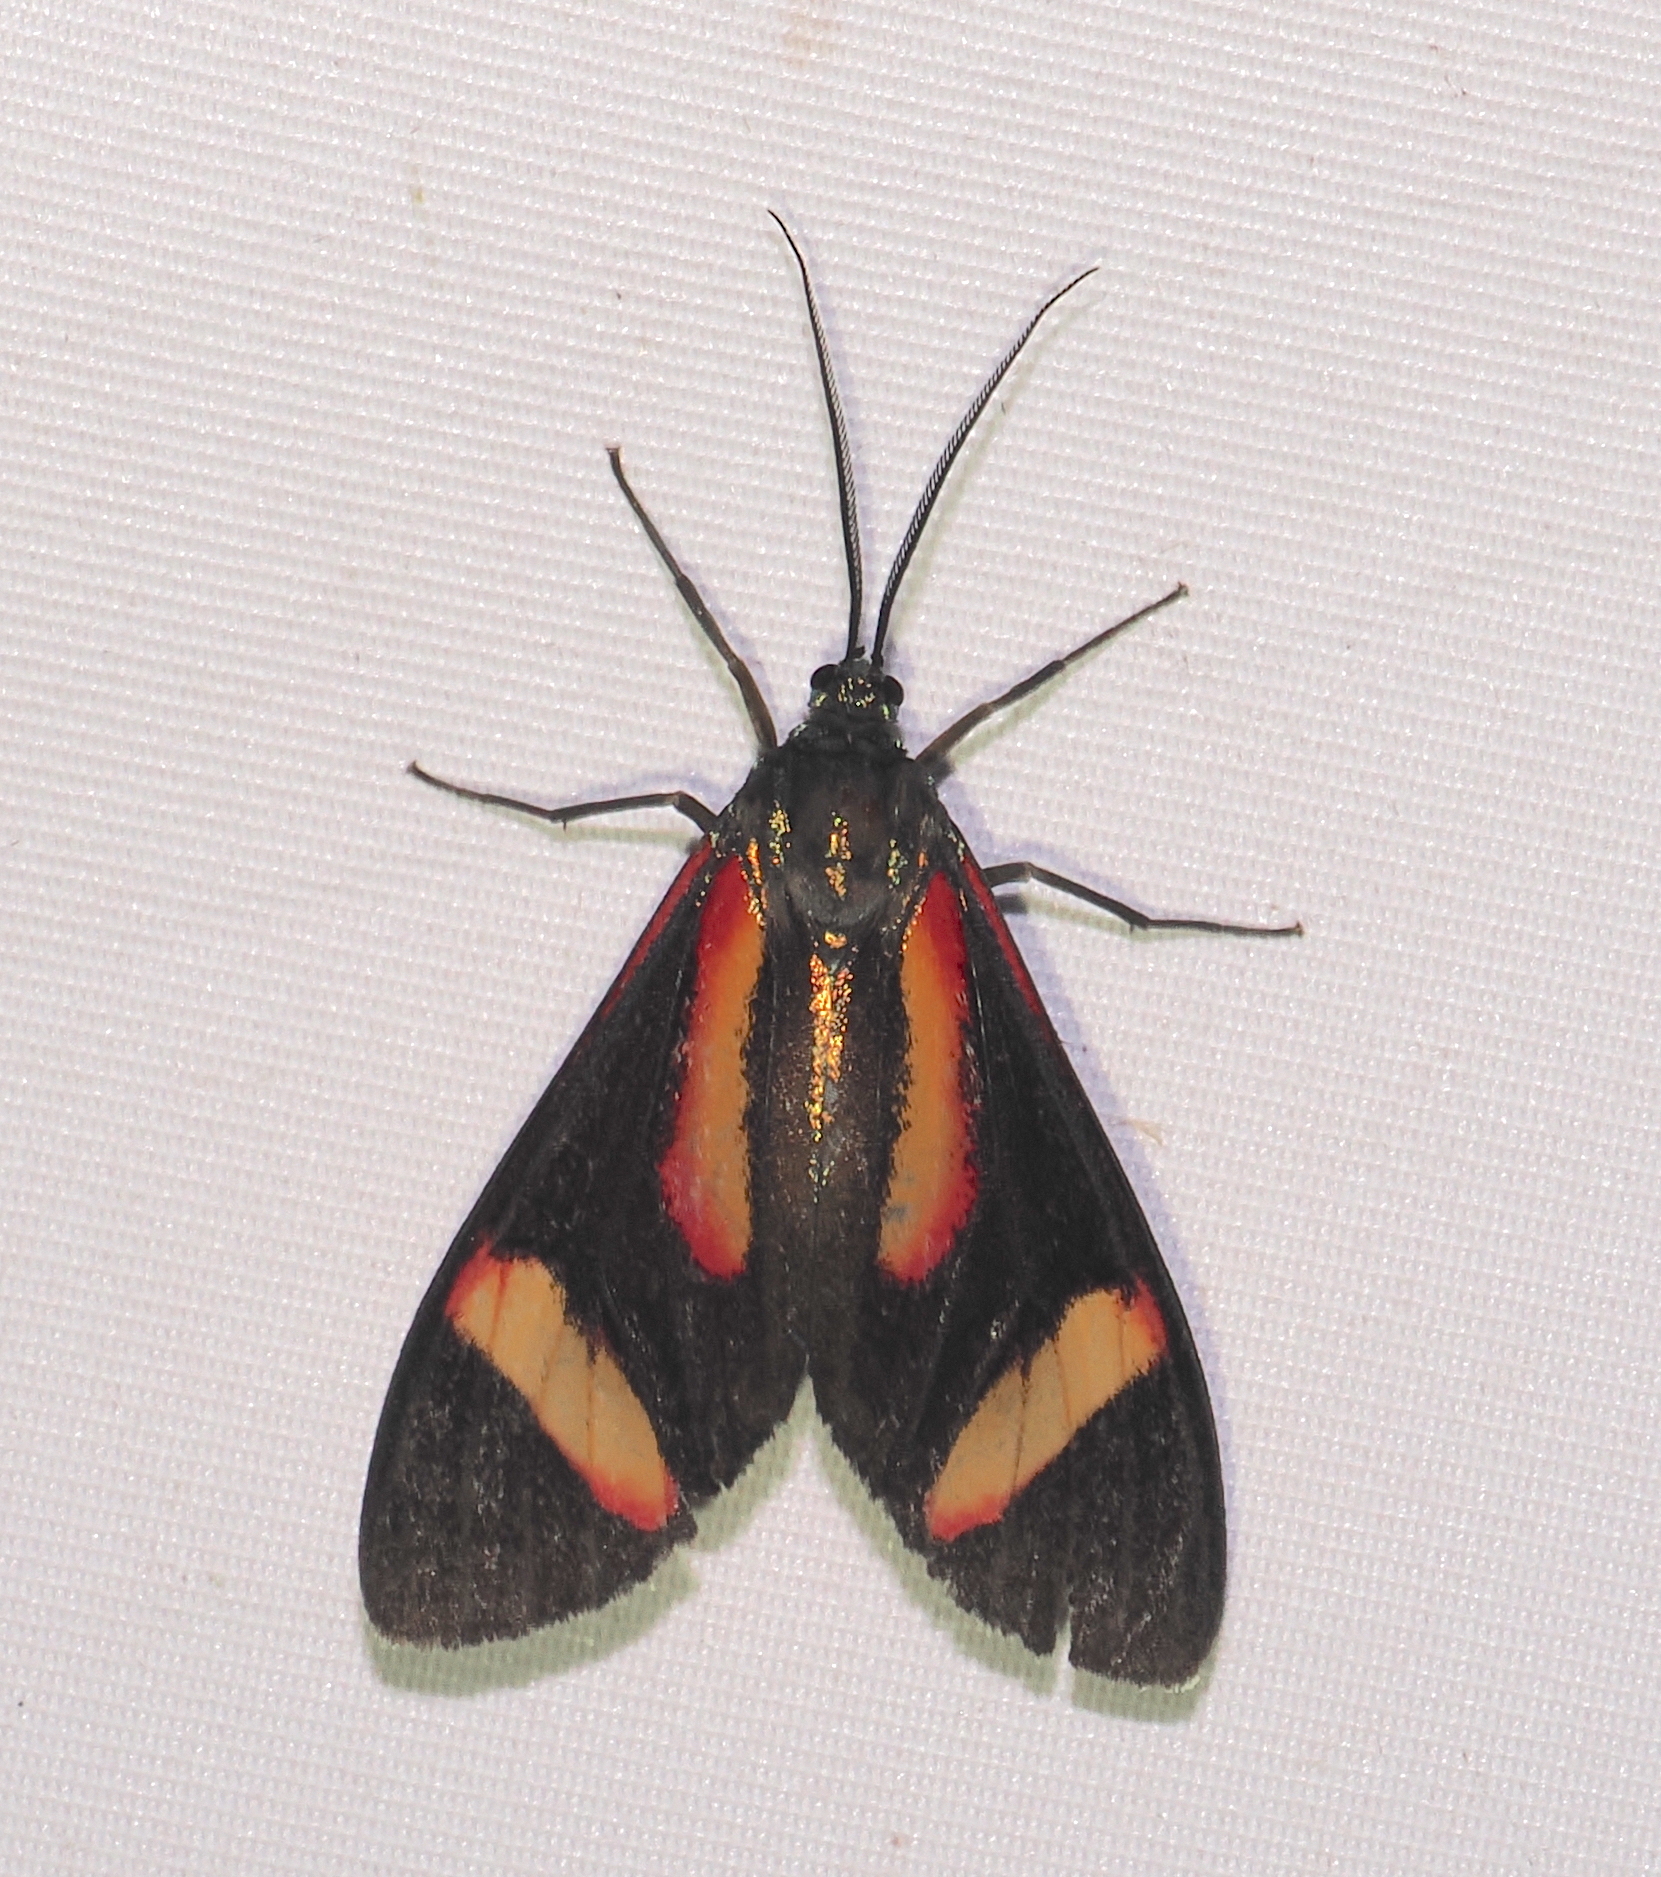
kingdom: Animalia
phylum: Arthropoda
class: Insecta
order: Lepidoptera
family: Erebidae
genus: Cyanopepla
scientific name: Cyanopepla submacula
